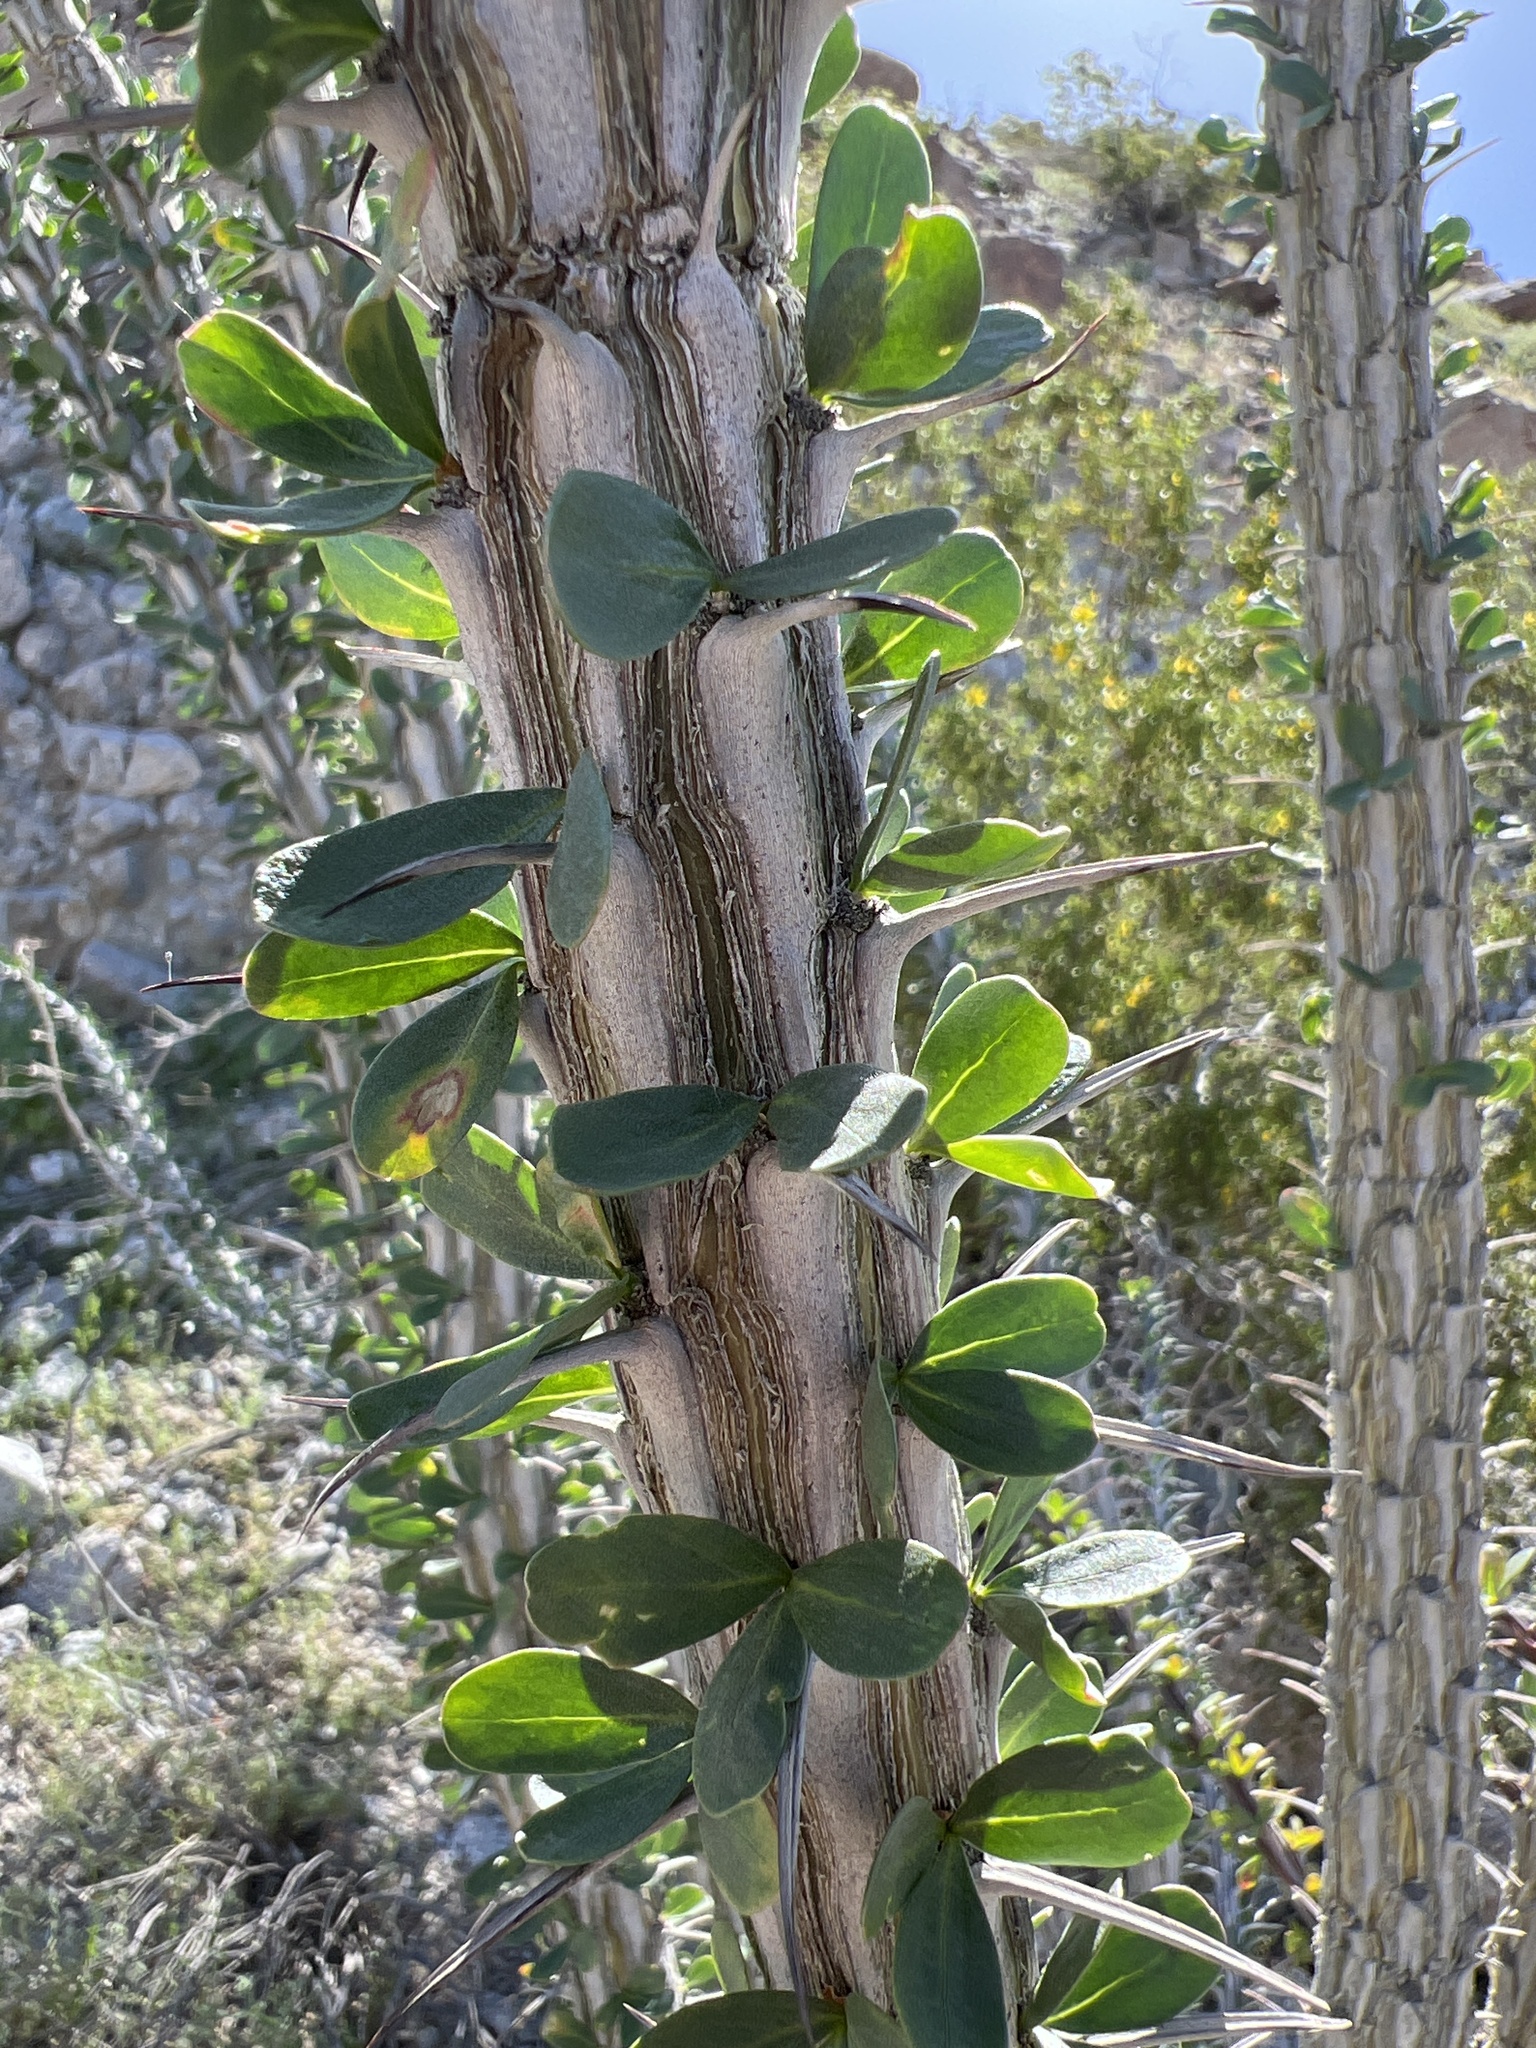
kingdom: Plantae
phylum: Tracheophyta
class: Magnoliopsida
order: Ericales
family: Fouquieriaceae
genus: Fouquieria
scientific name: Fouquieria splendens
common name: Vine-cactus
